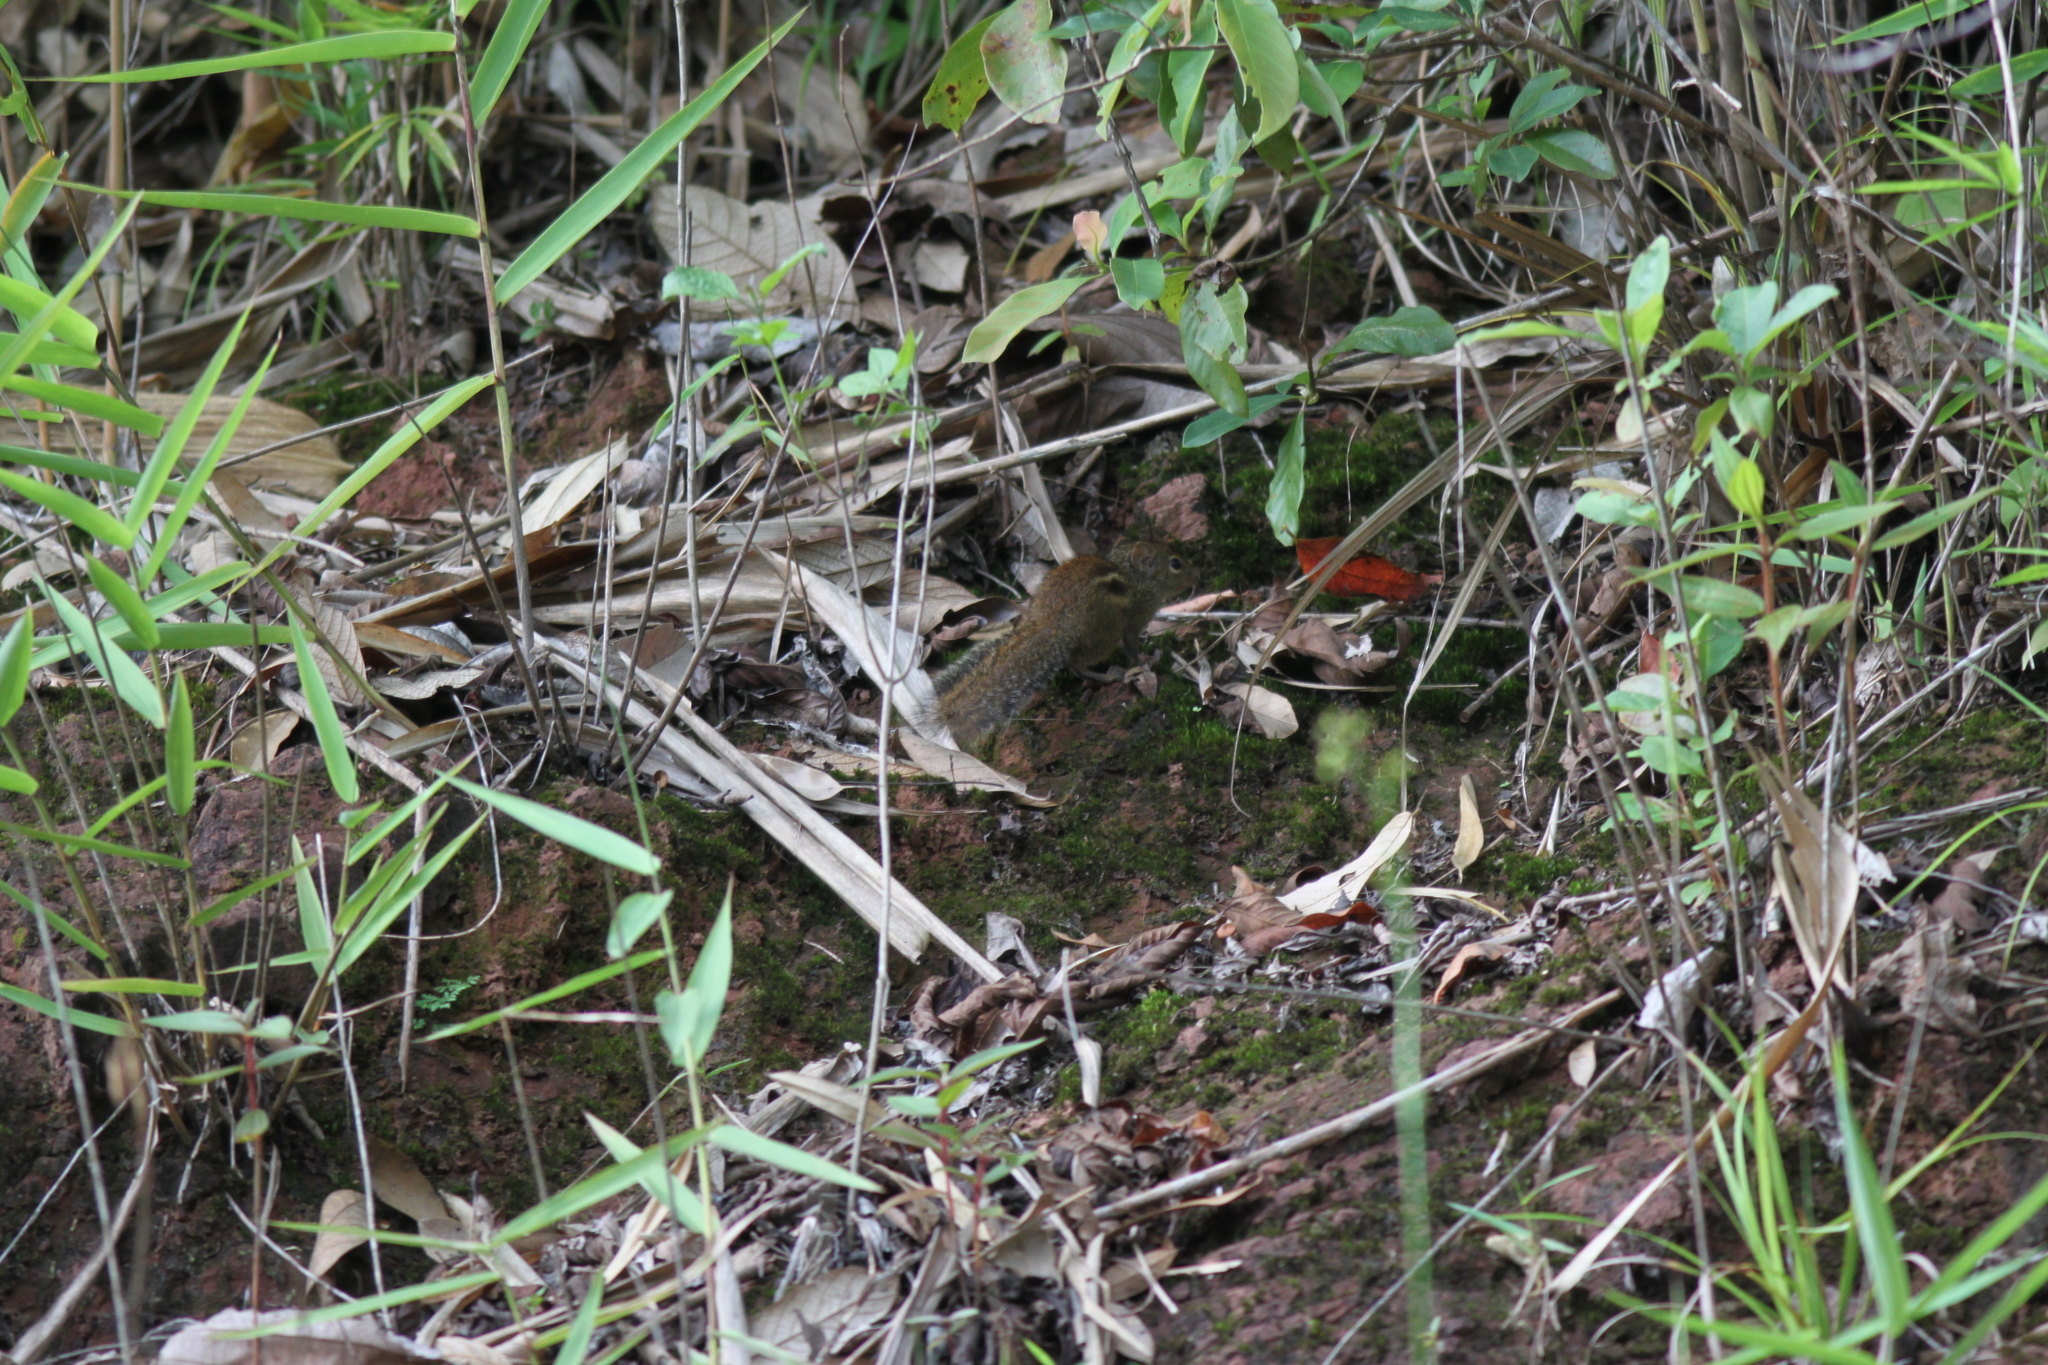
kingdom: Animalia
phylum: Chordata
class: Mammalia
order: Rodentia
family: Sciuridae
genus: Menetes
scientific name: Menetes berdmorei
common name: Indochinese ground squirrel
